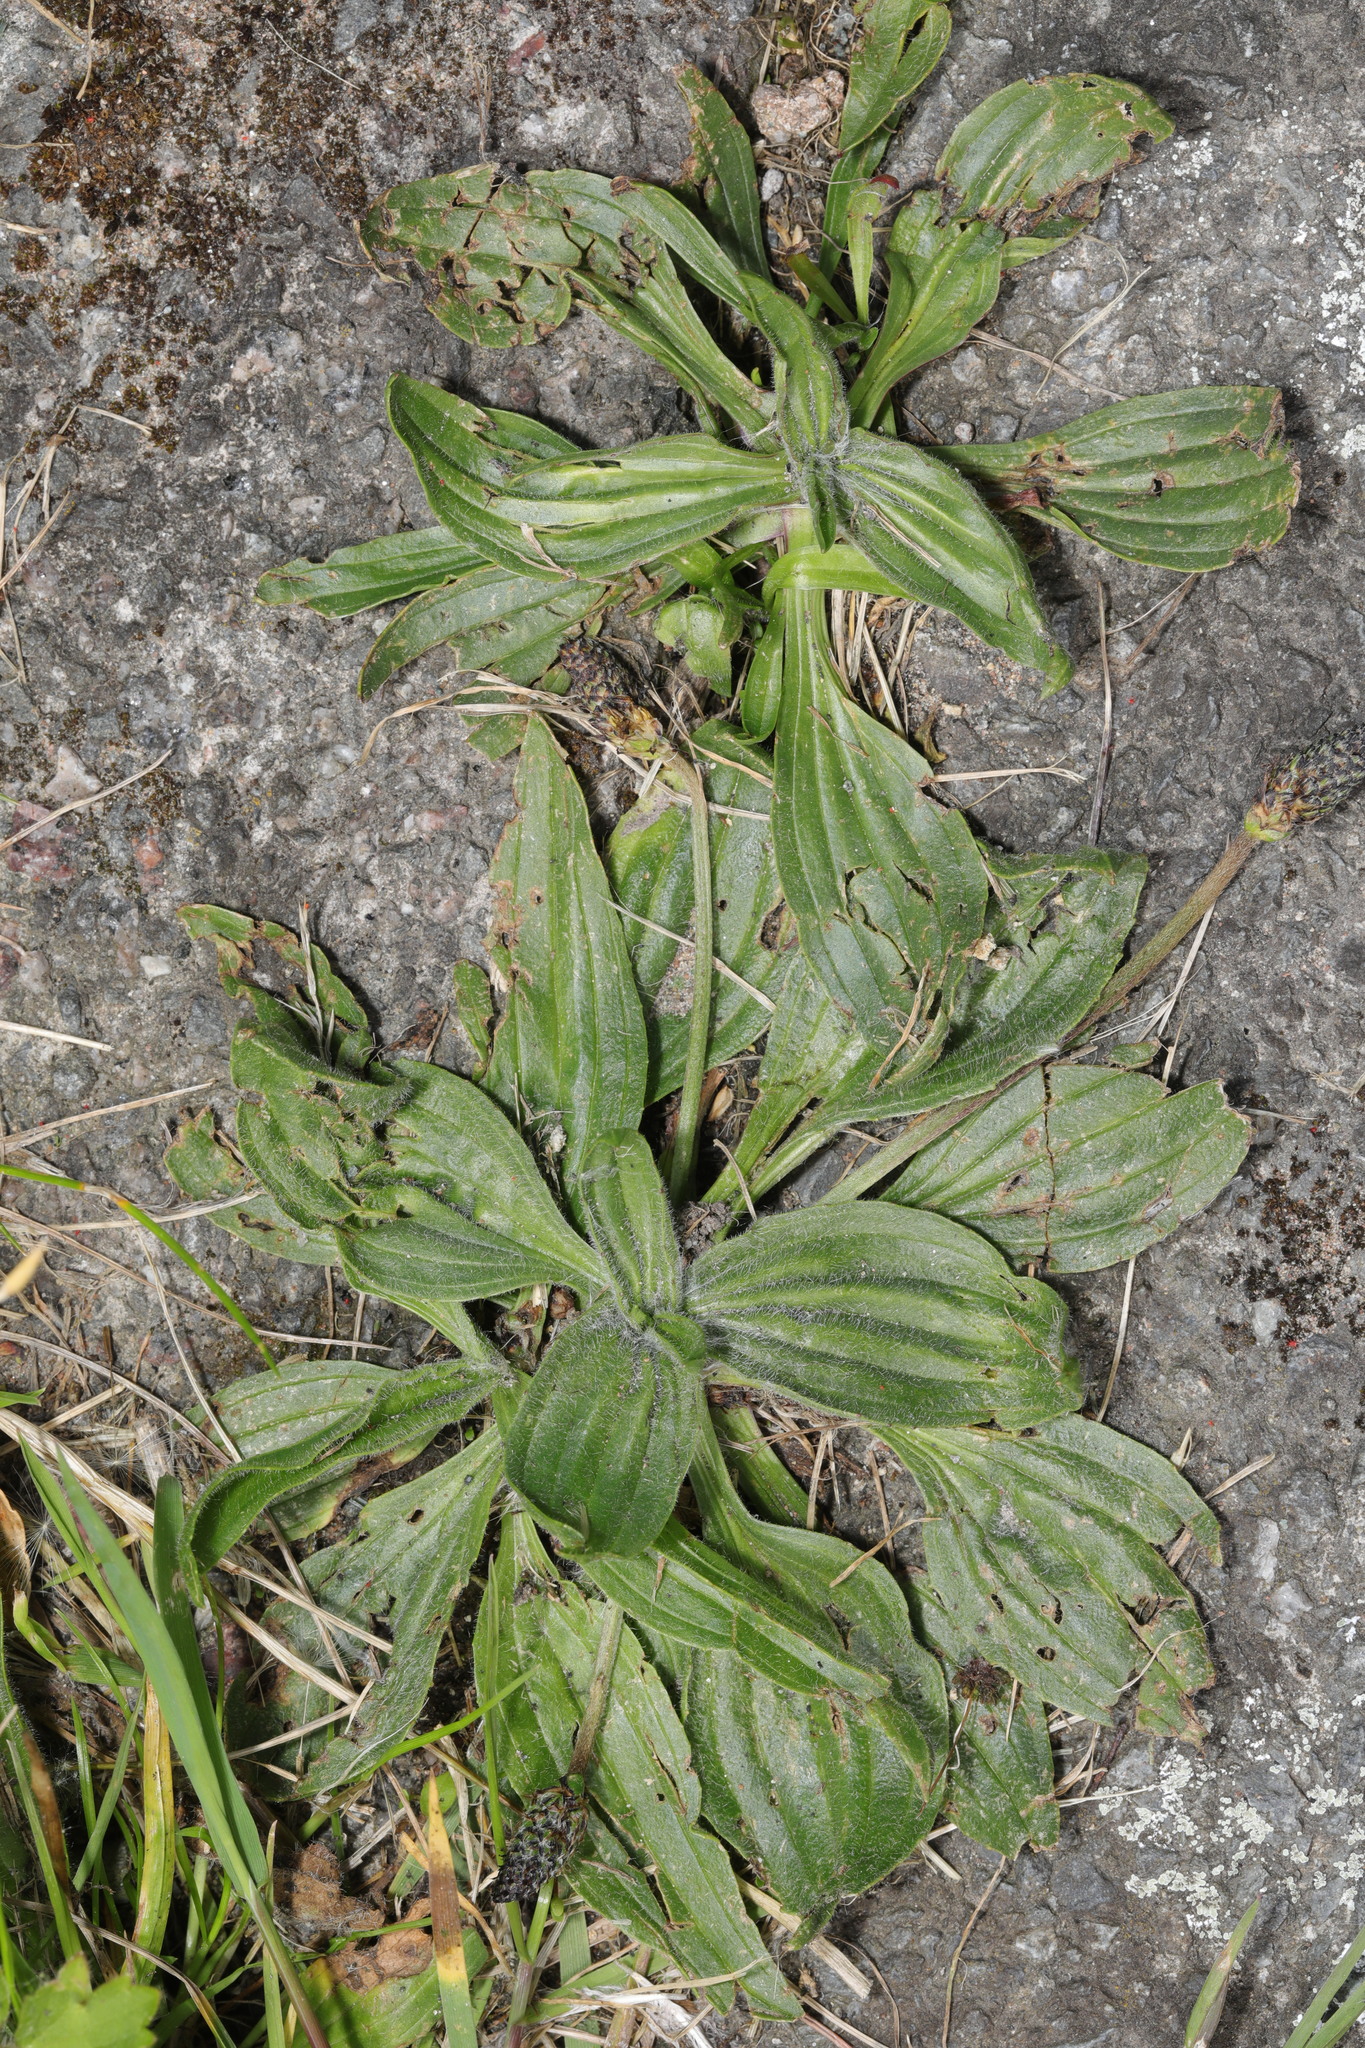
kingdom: Plantae
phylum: Tracheophyta
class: Magnoliopsida
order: Lamiales
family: Plantaginaceae
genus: Plantago
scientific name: Plantago lanceolata
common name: Ribwort plantain
